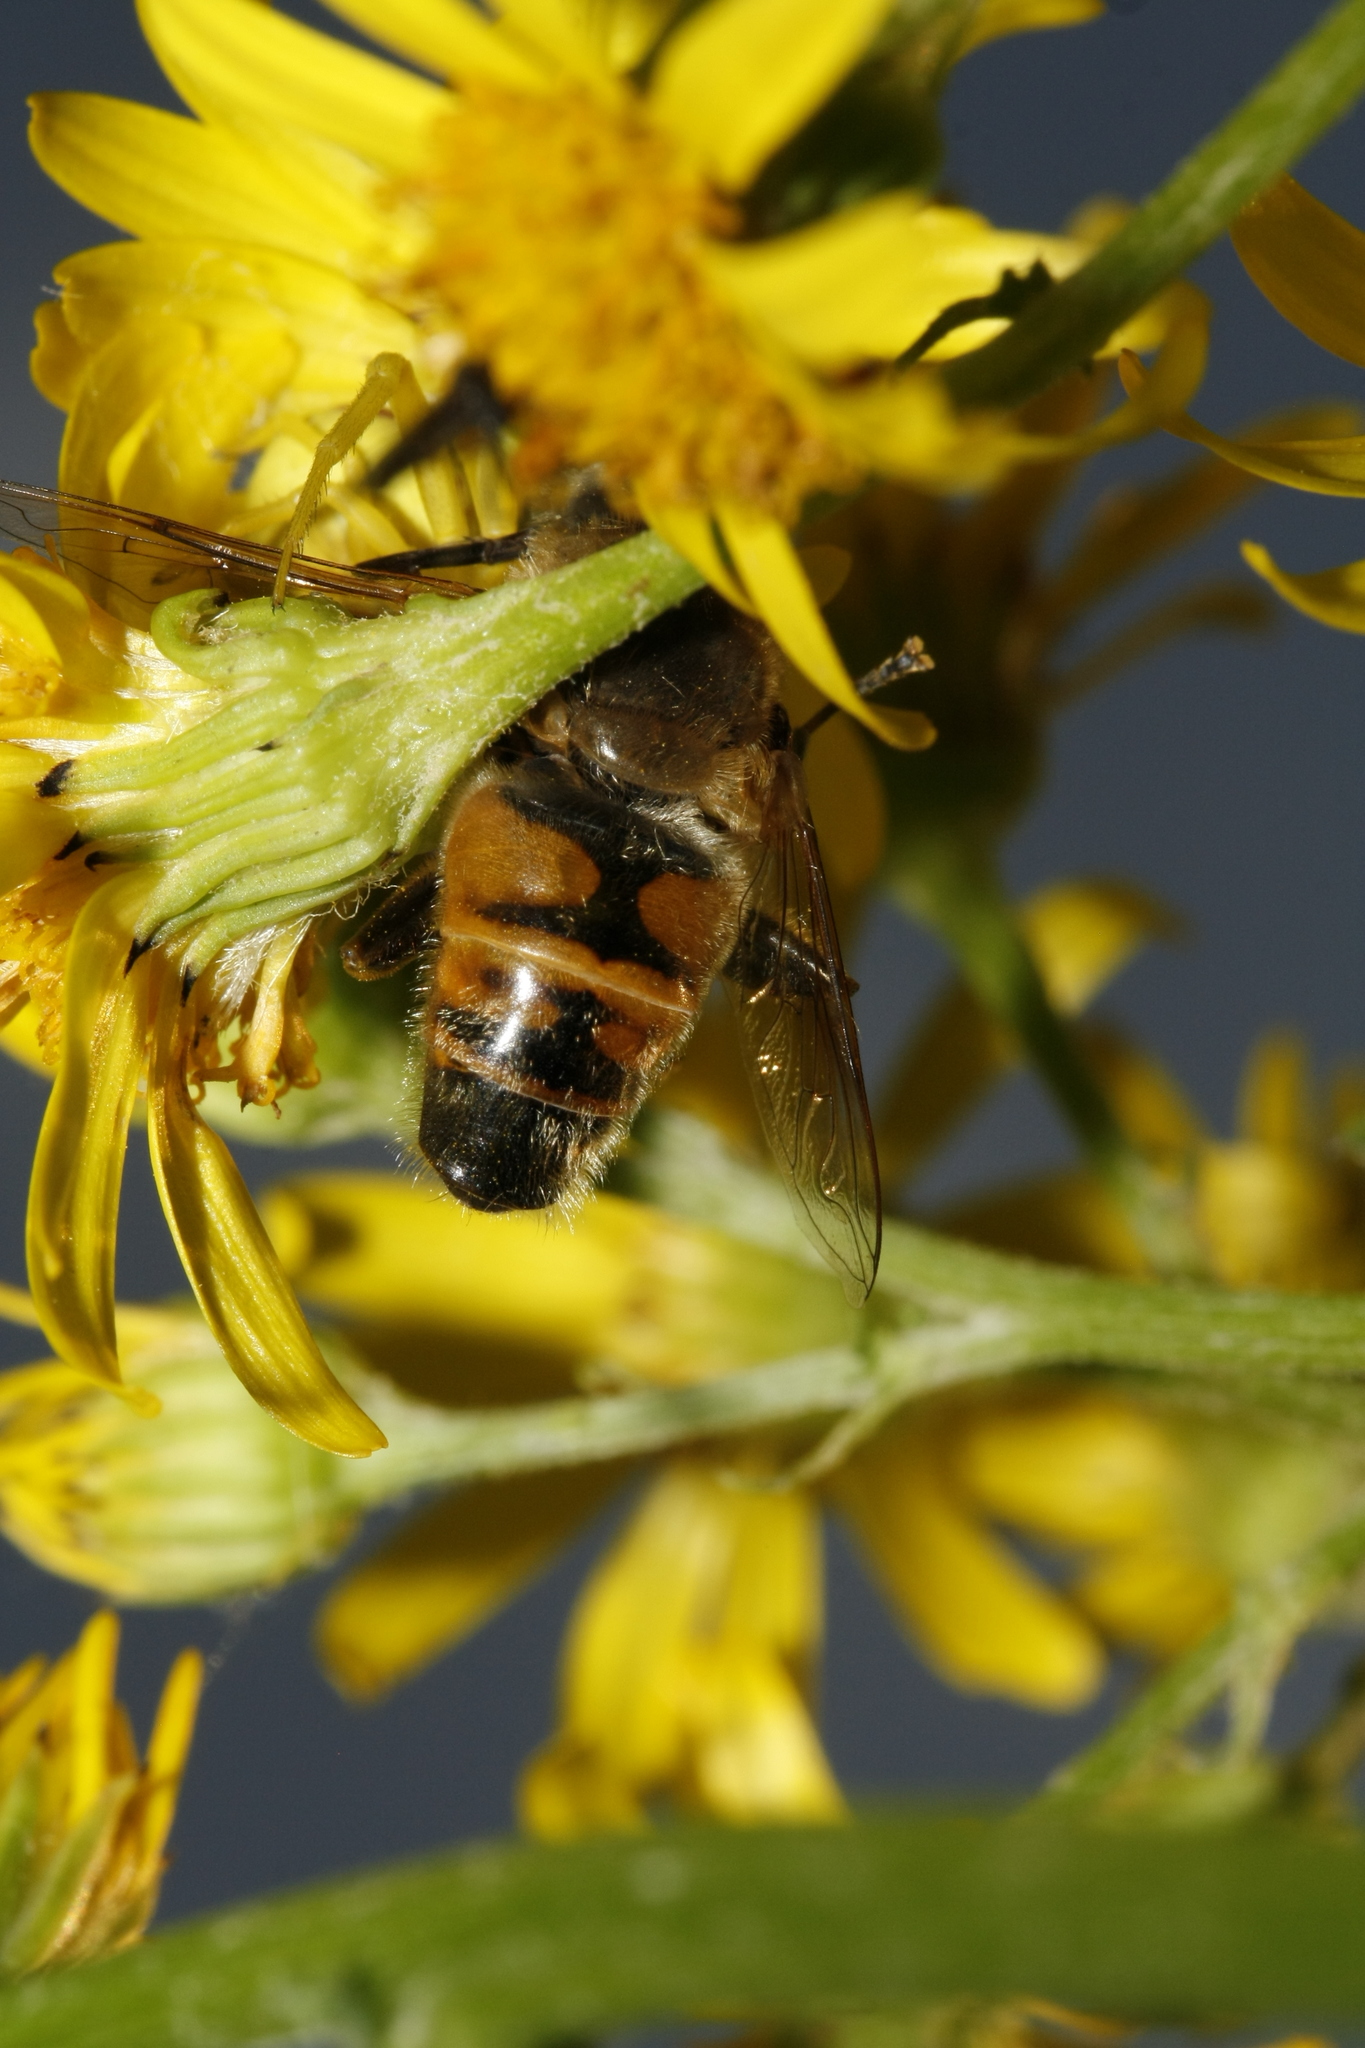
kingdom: Animalia
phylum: Arthropoda
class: Insecta
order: Diptera
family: Syrphidae
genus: Eristalis
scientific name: Eristalis tenax
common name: Drone fly
